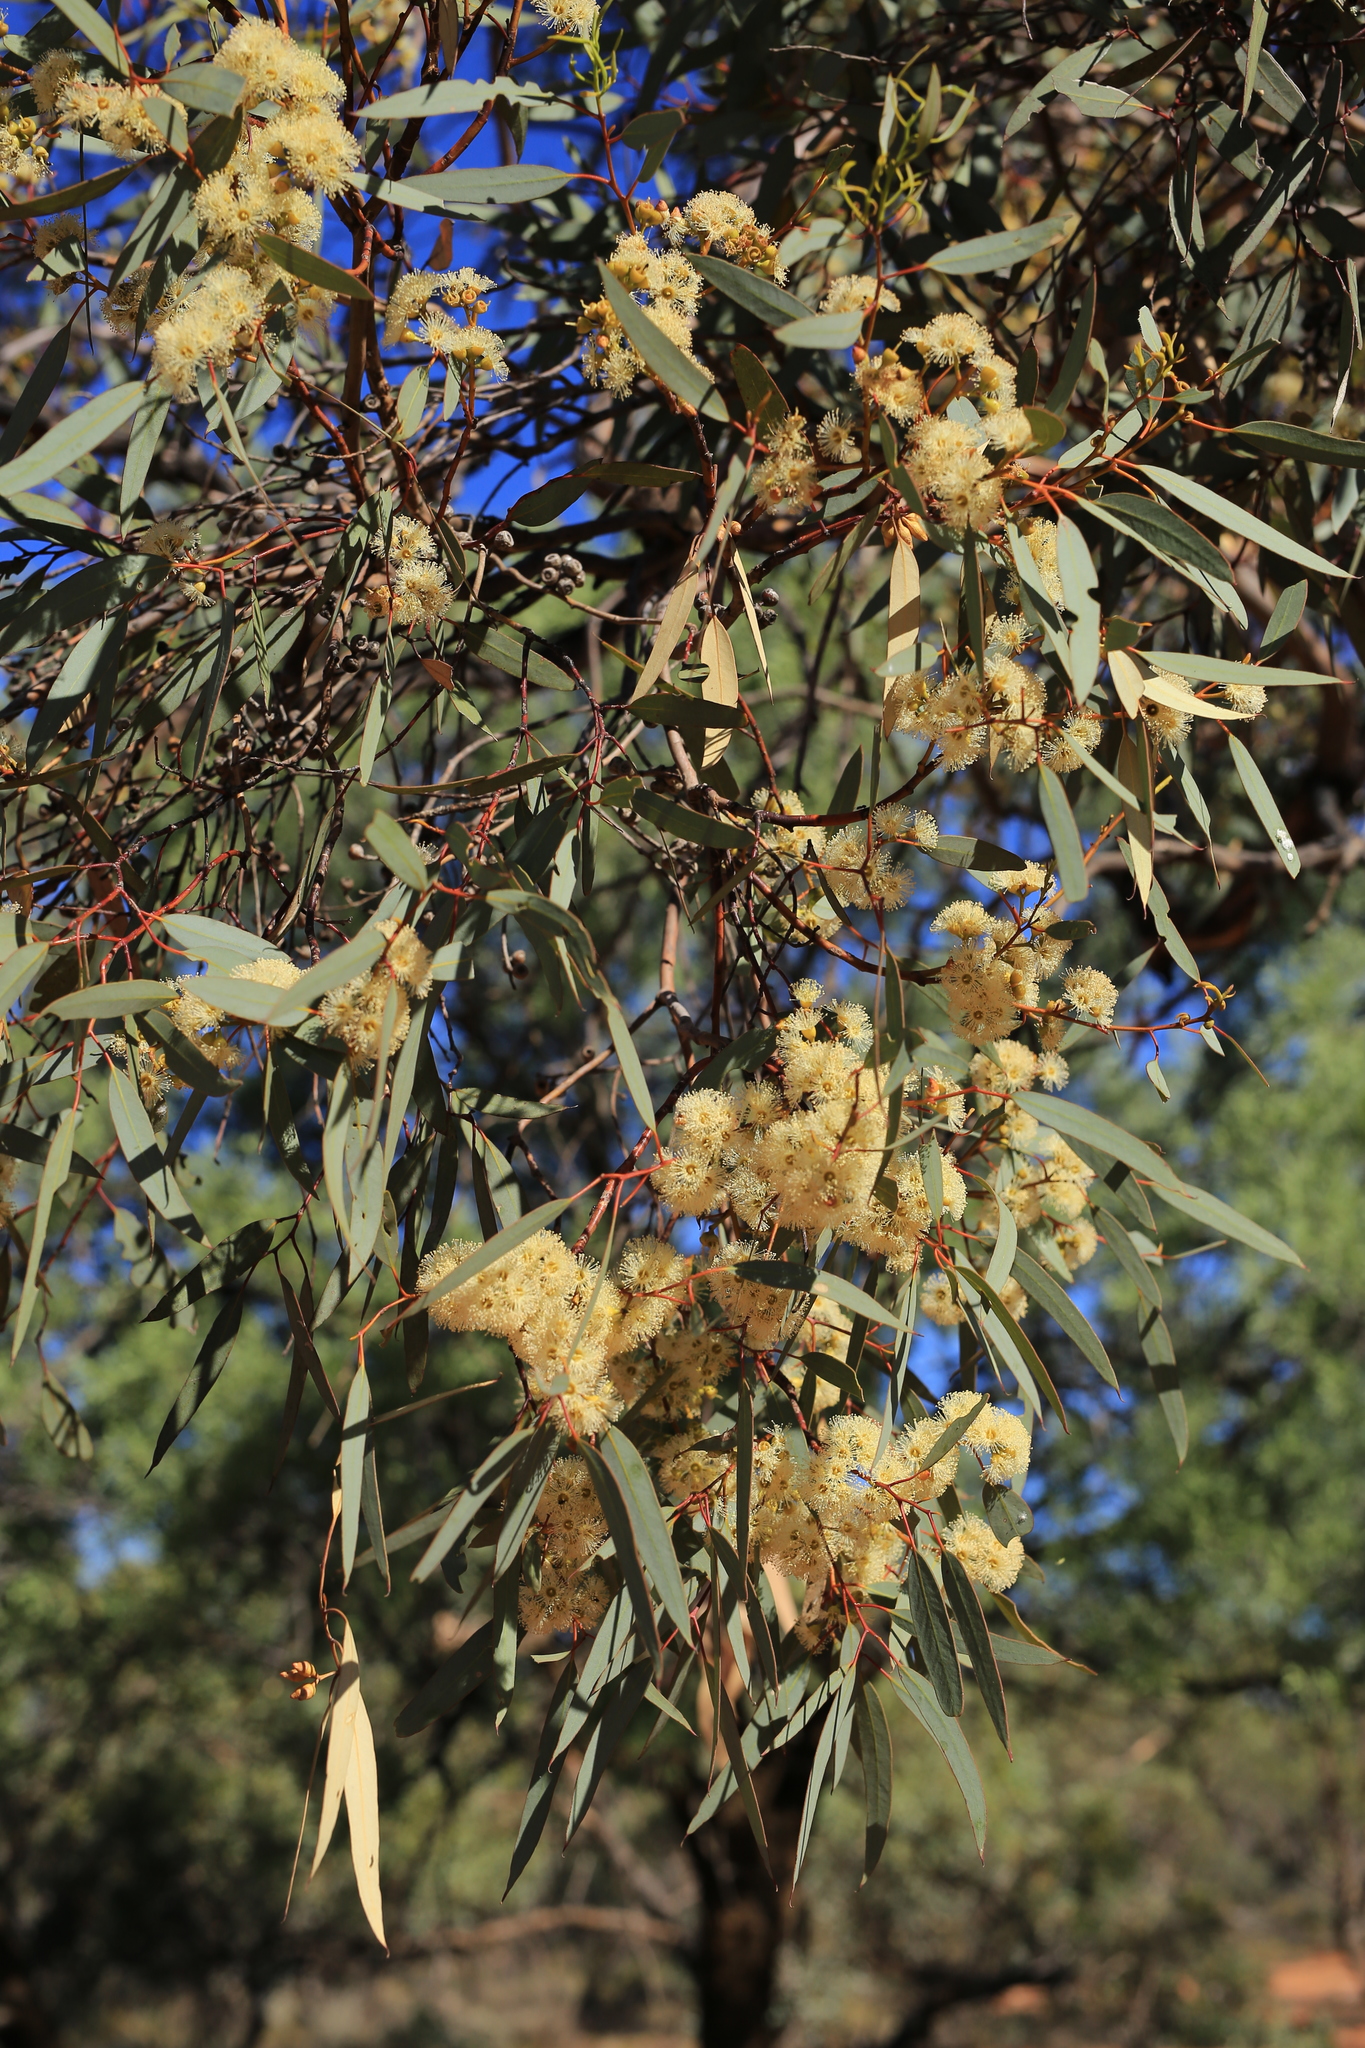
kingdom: Plantae
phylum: Tracheophyta
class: Magnoliopsida
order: Myrtales
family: Myrtaceae
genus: Eucalyptus
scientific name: Eucalyptus socialis
